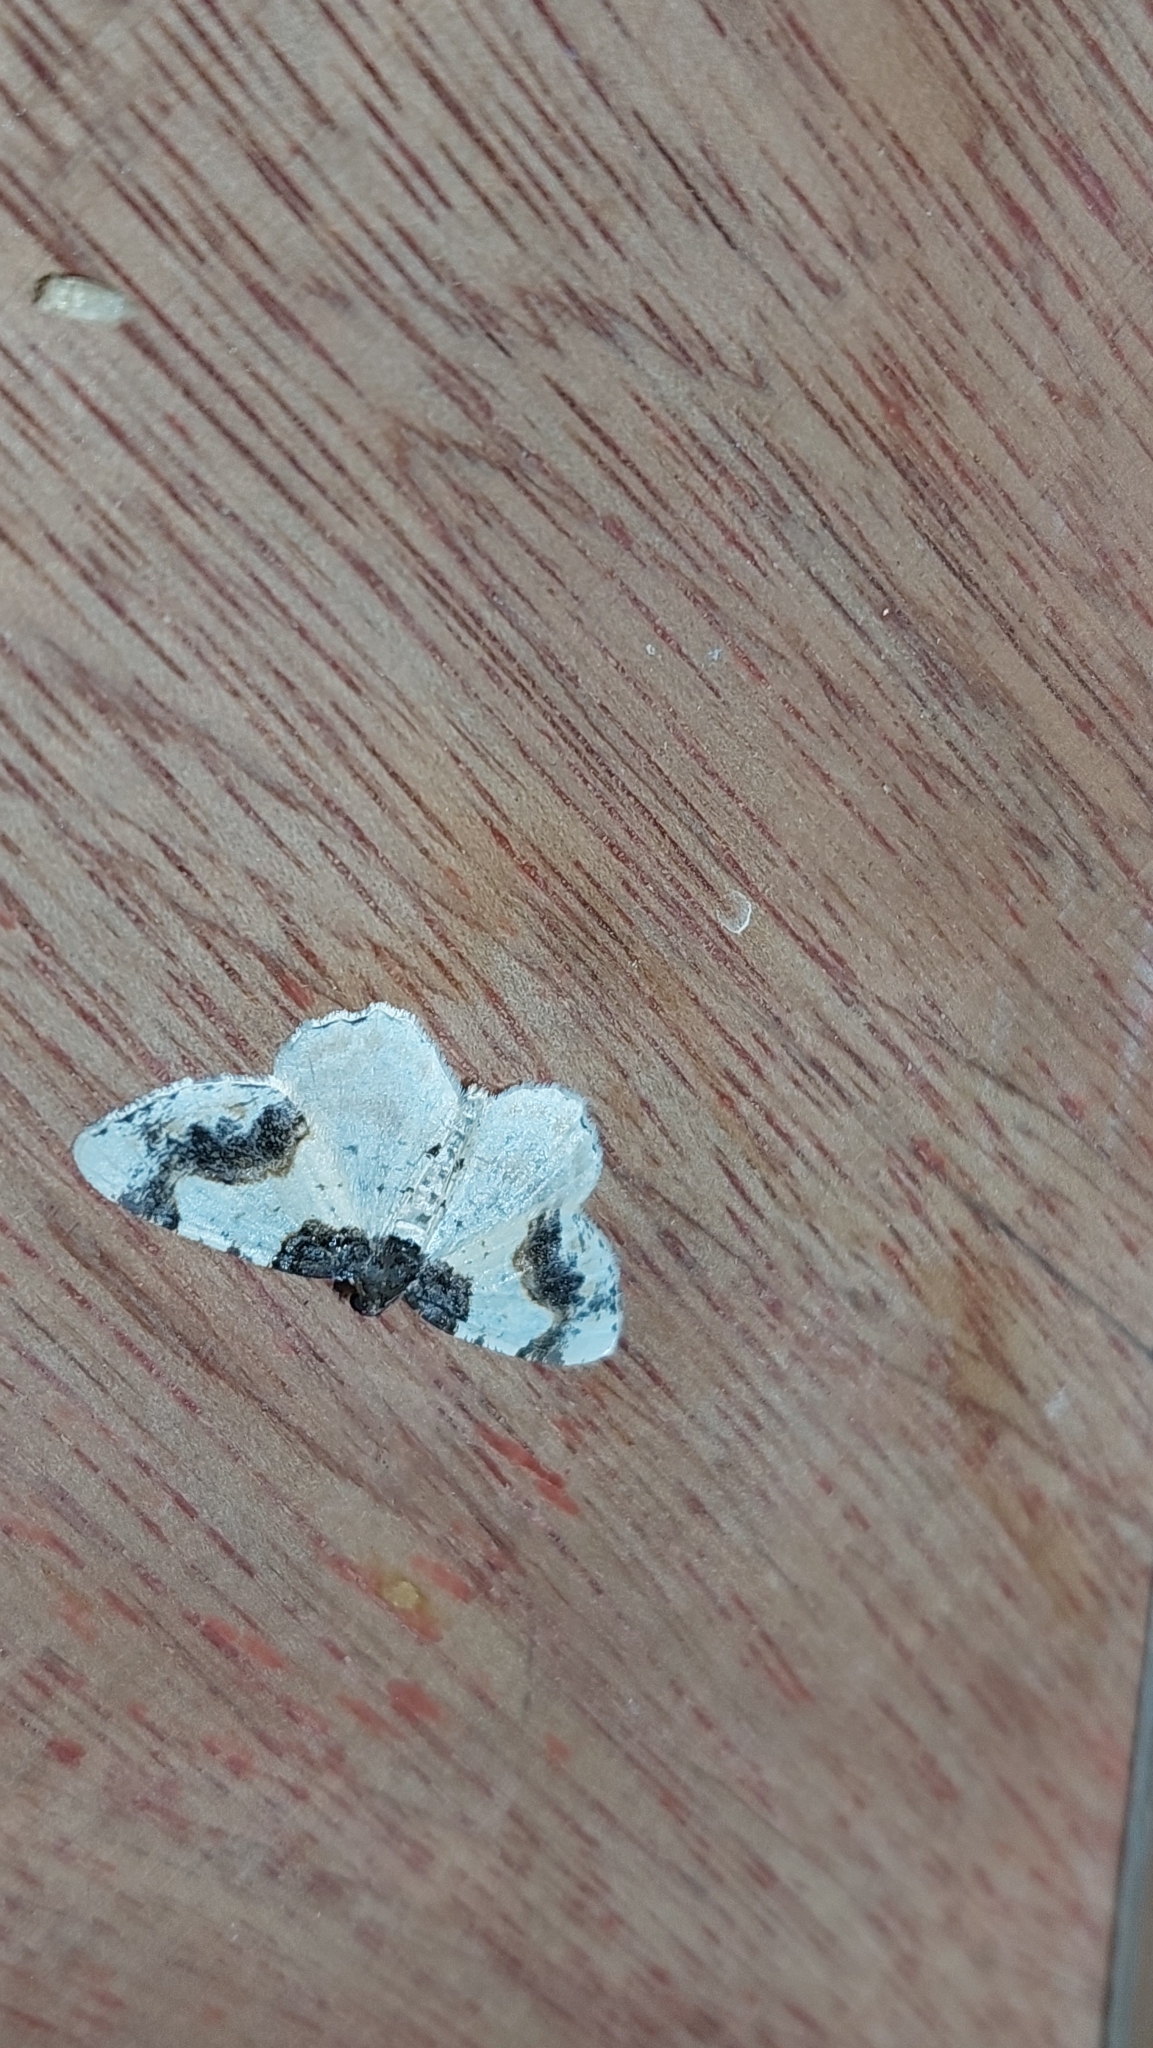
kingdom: Animalia
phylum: Arthropoda
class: Insecta
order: Lepidoptera
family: Geometridae
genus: Ligdia
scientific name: Ligdia adustata
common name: Scorched carpet
